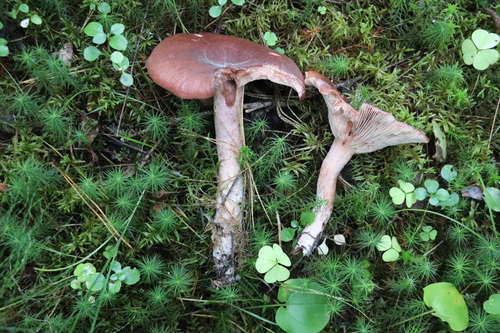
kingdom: Fungi
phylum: Basidiomycota
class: Agaricomycetes
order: Russulales
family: Russulaceae
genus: Lactarius
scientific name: Lactarius rufus
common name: Rufous milk-cap
